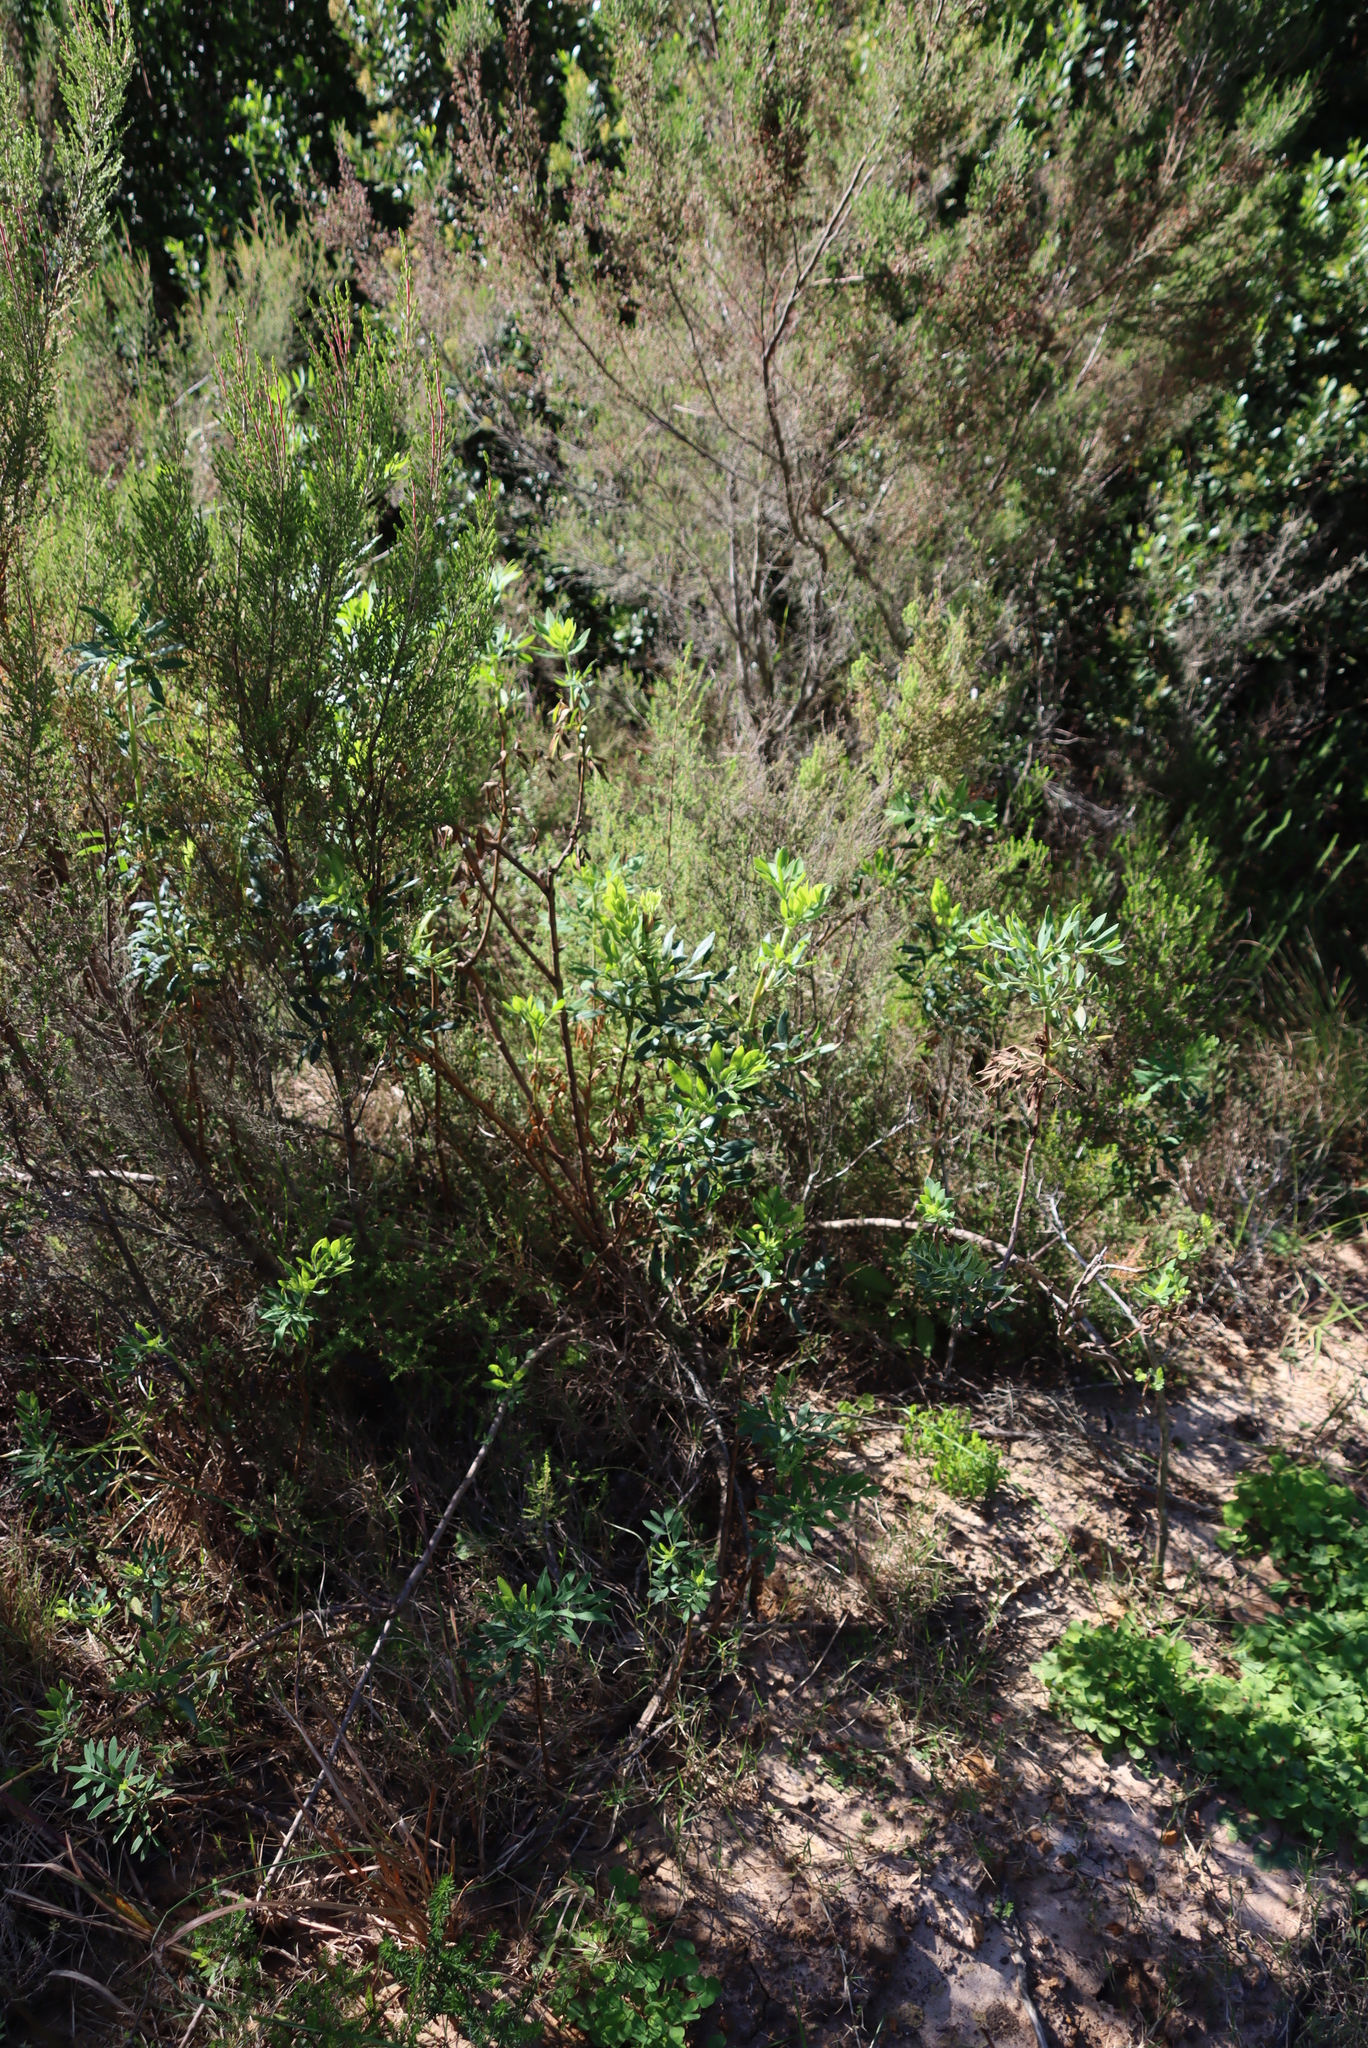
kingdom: Plantae
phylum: Tracheophyta
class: Magnoliopsida
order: Apiales
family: Apiaceae
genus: Notobubon
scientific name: Notobubon laevigatum
